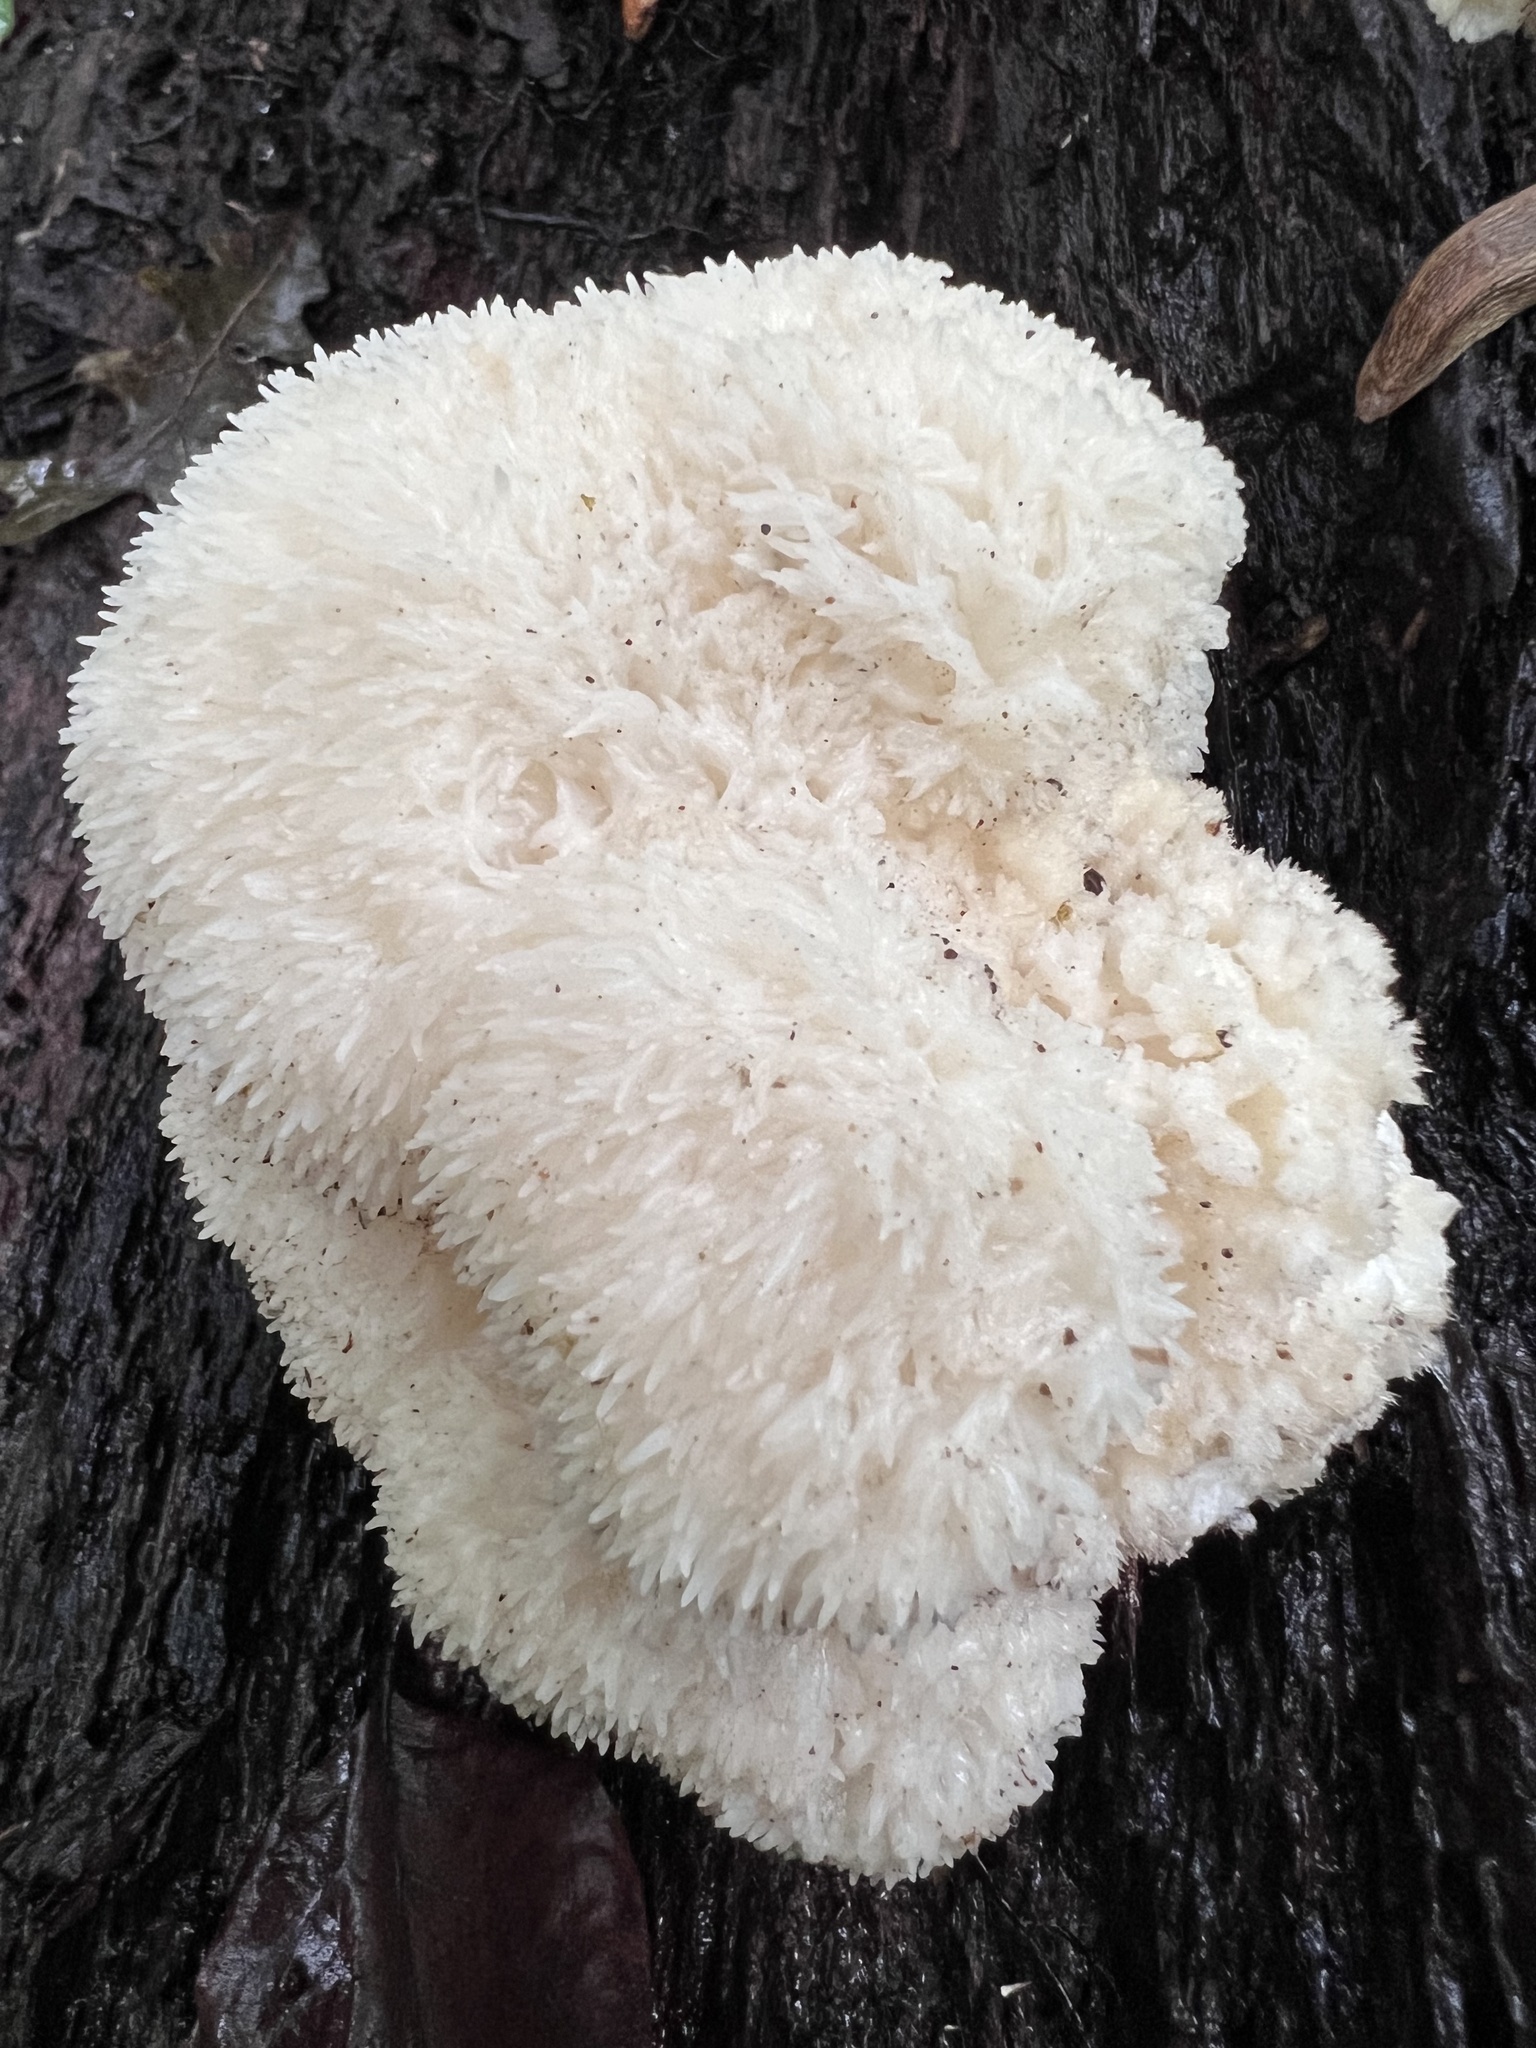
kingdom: Fungi
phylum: Basidiomycota
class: Agaricomycetes
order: Russulales
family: Hericiaceae
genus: Hericium
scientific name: Hericium erinaceus
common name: Bearded tooth
